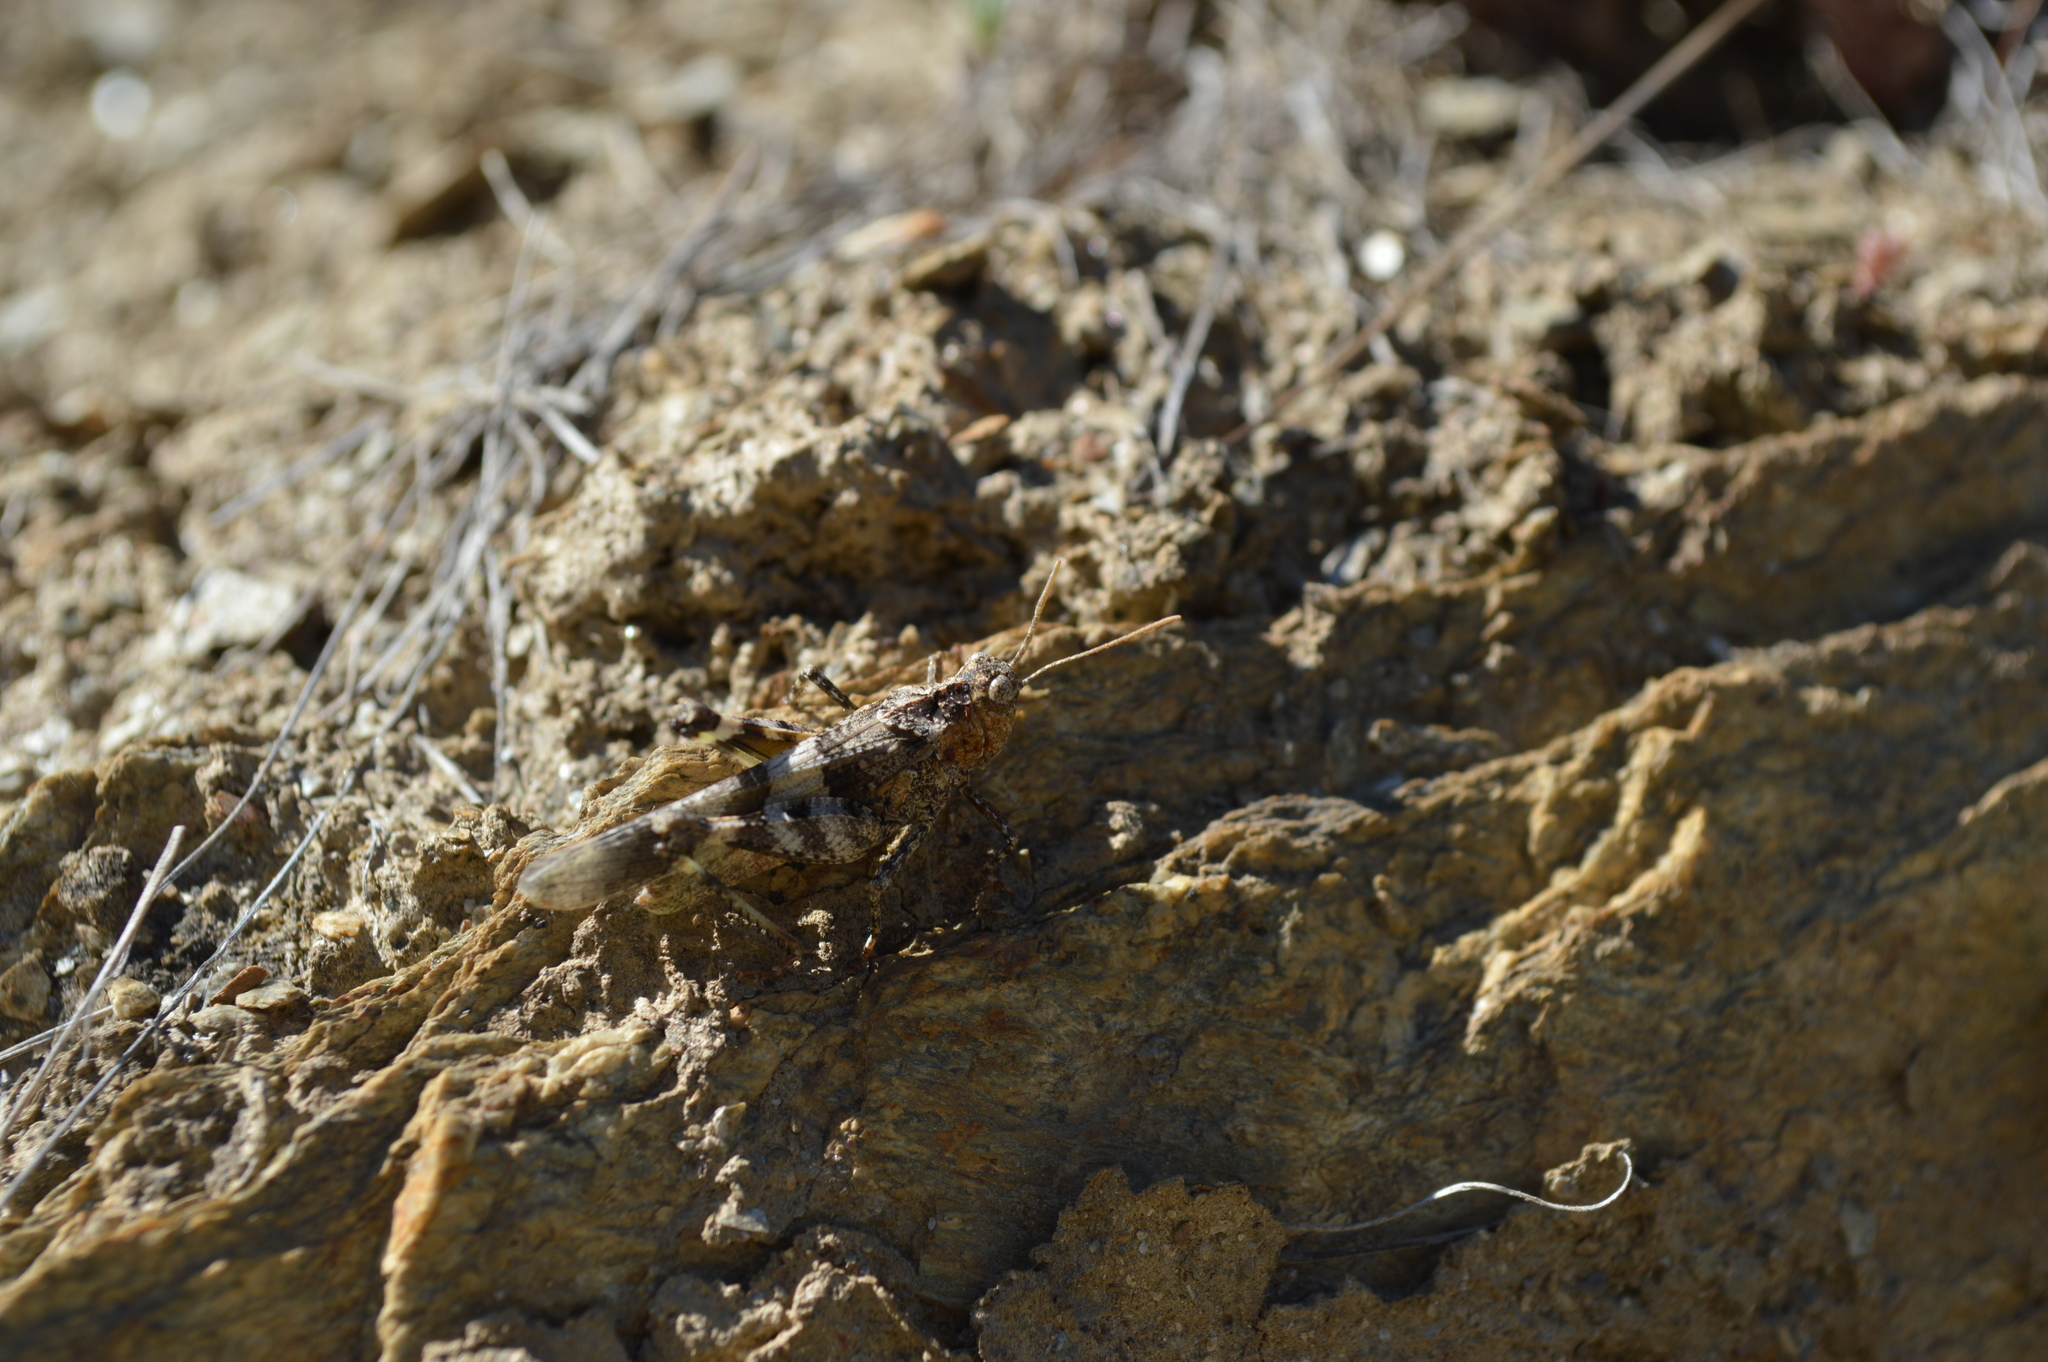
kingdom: Animalia
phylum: Arthropoda
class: Insecta
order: Orthoptera
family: Acrididae
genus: Oedipoda
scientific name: Oedipoda caerulescens
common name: Blue-winged grasshopper
